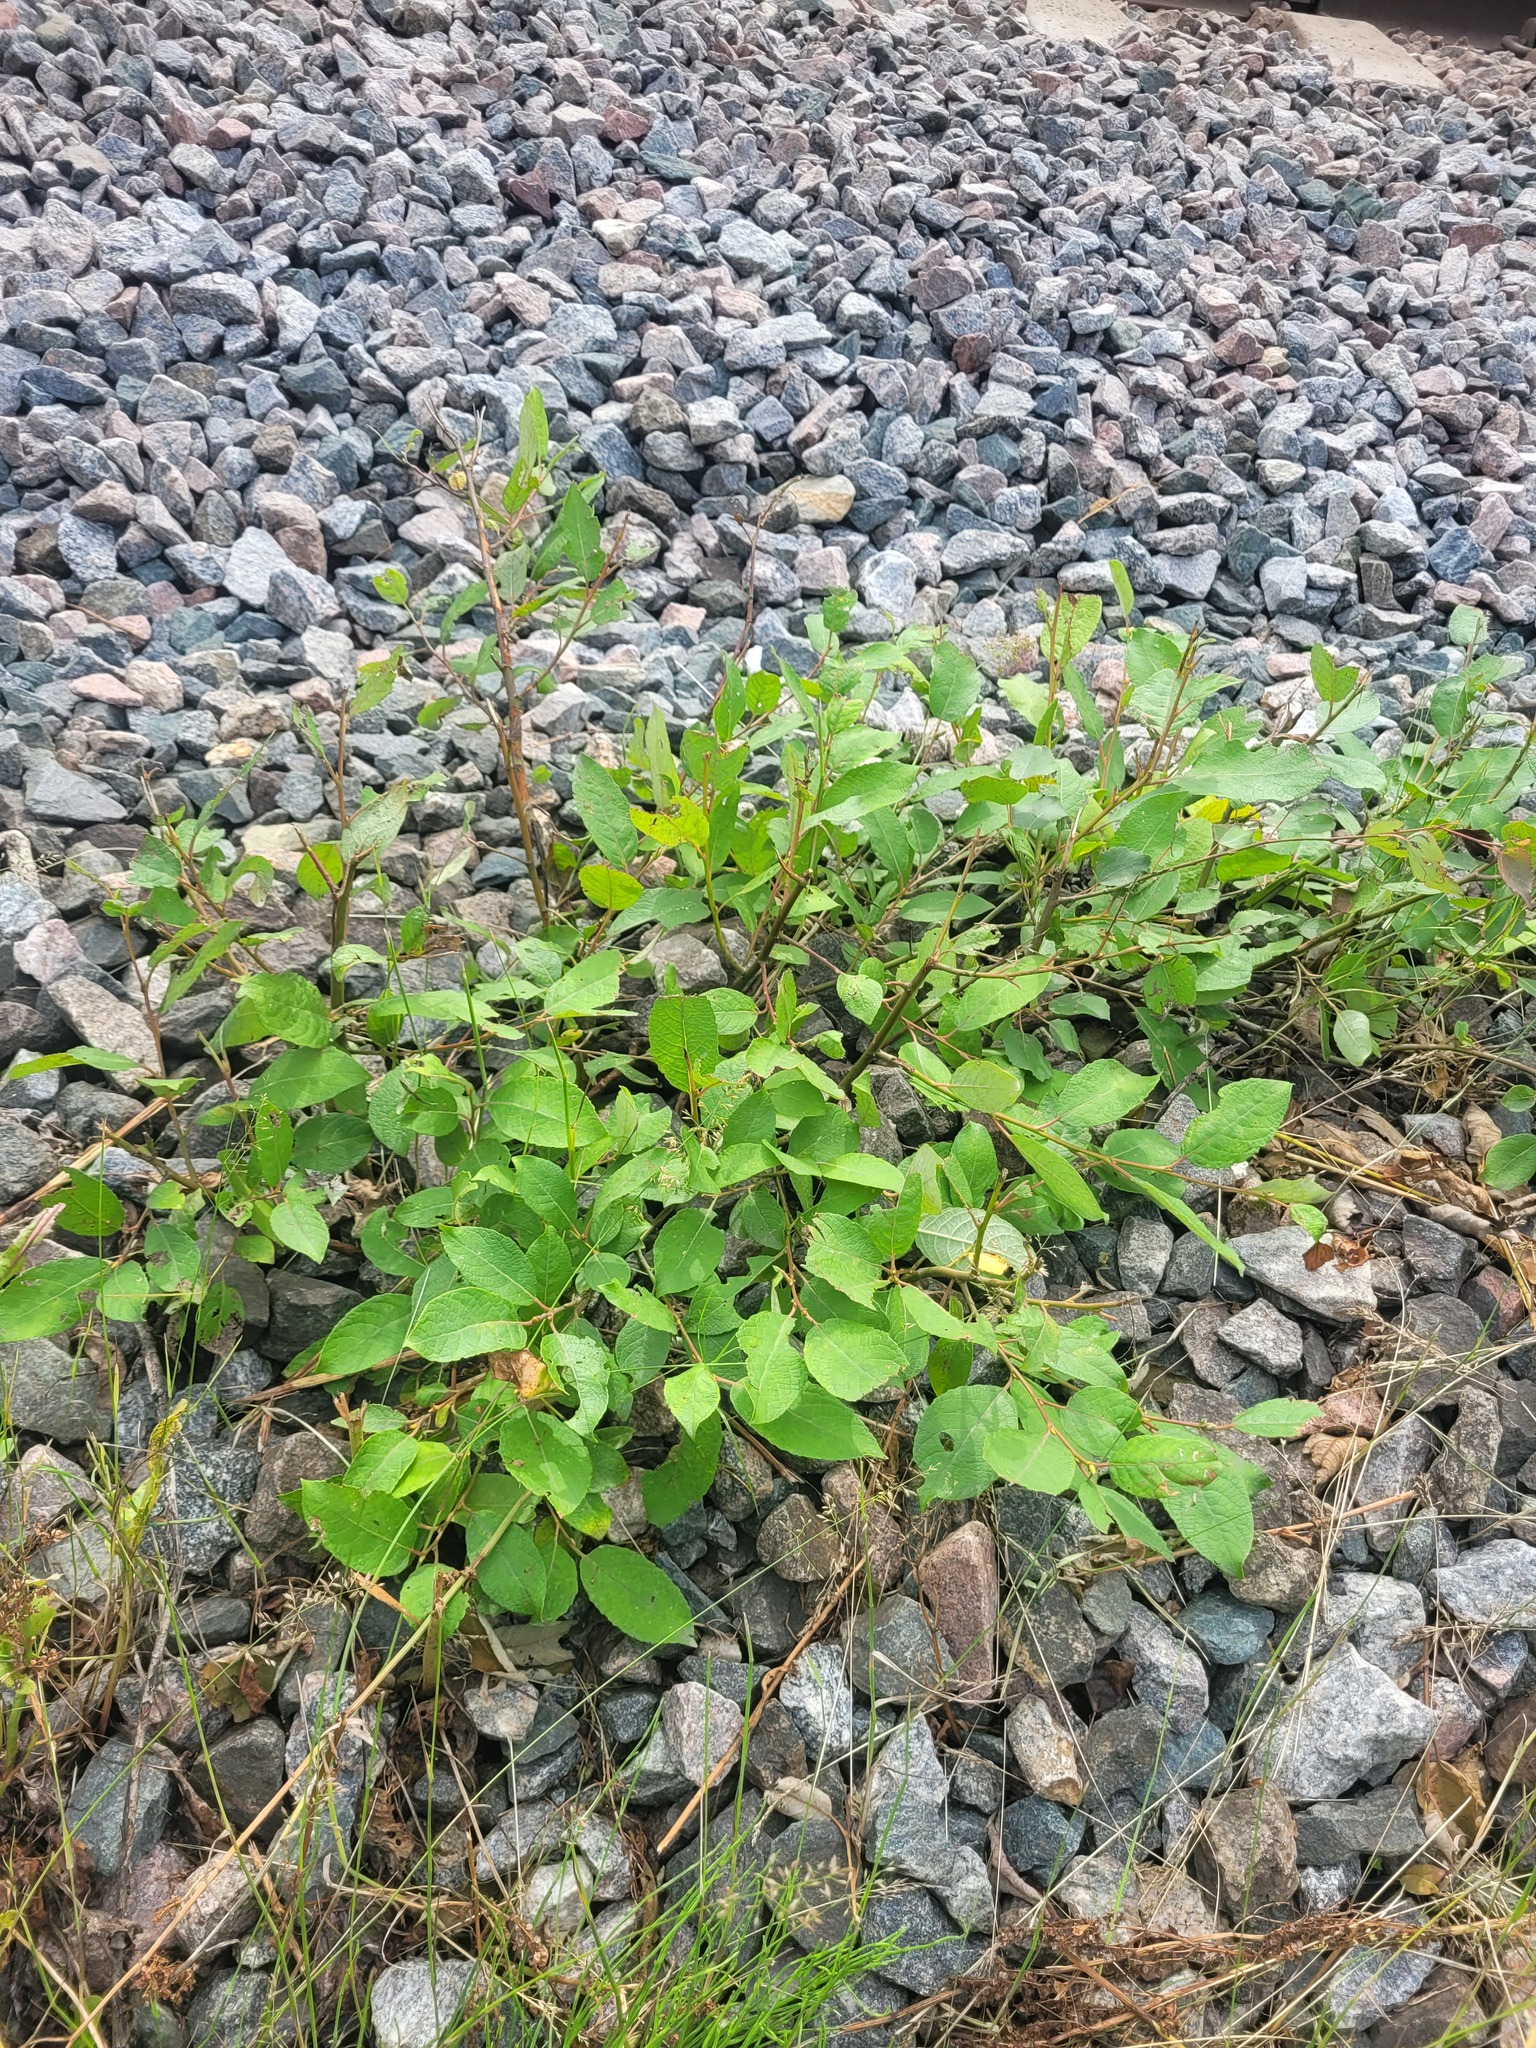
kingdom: Plantae
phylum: Tracheophyta
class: Magnoliopsida
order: Malpighiales
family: Salicaceae
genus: Salix
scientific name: Salix caprea
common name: Goat willow
